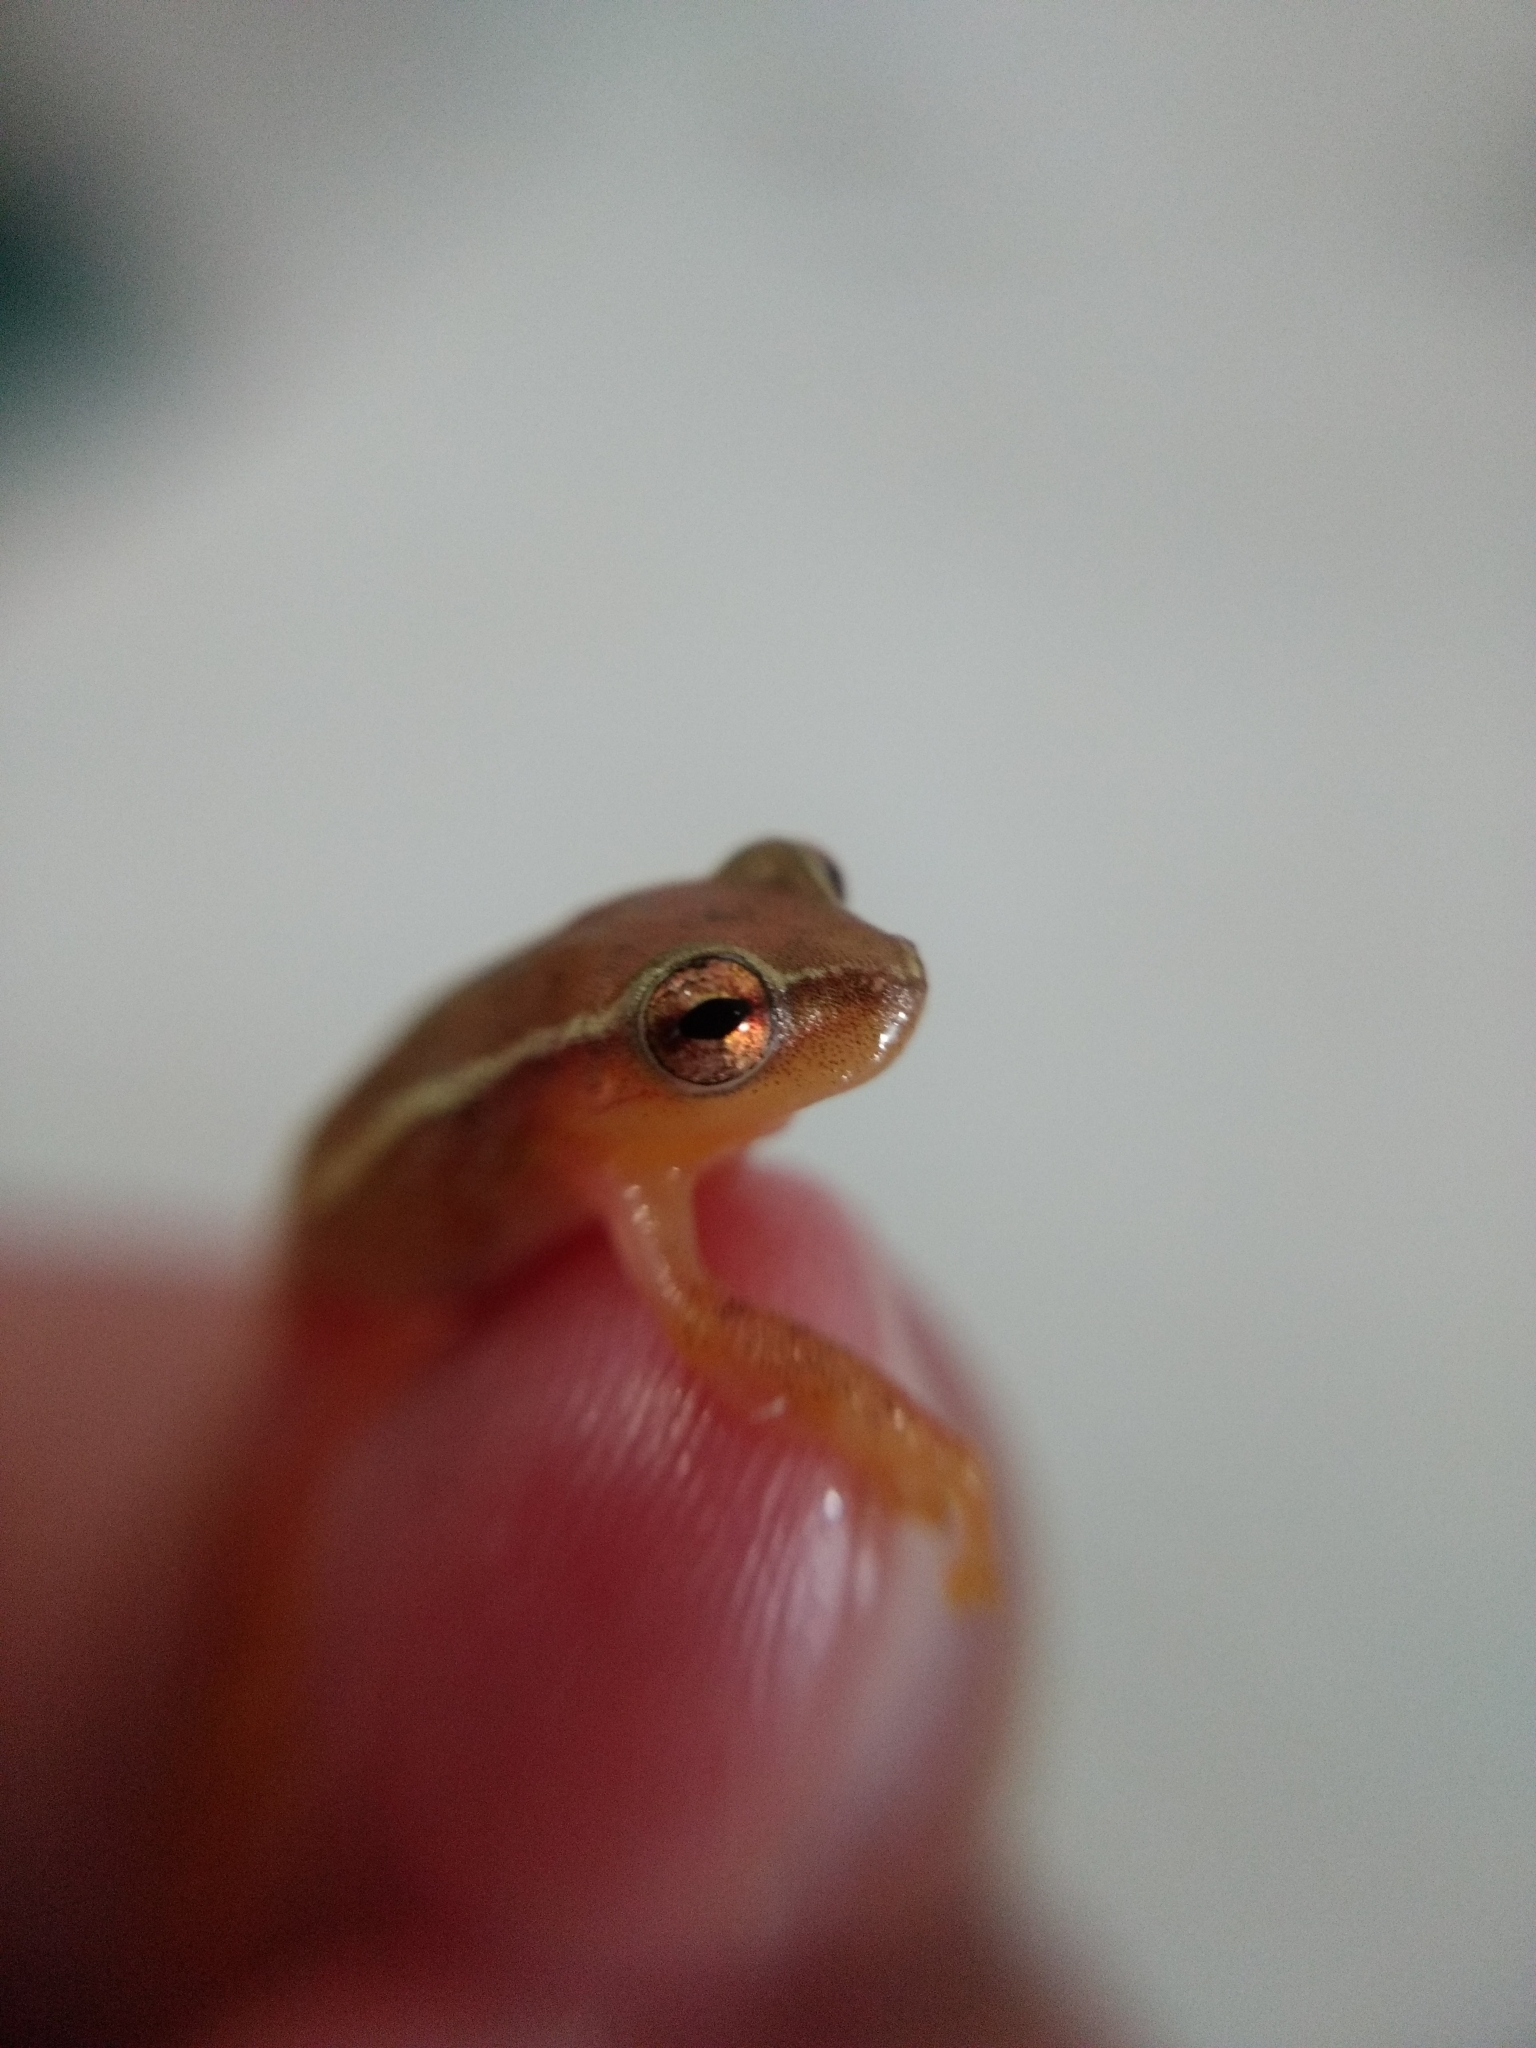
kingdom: Animalia
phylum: Chordata
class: Amphibia
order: Anura
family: Hylidae
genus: Dendropsophus
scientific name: Dendropsophus microcephalus
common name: Small-headed treefrog
